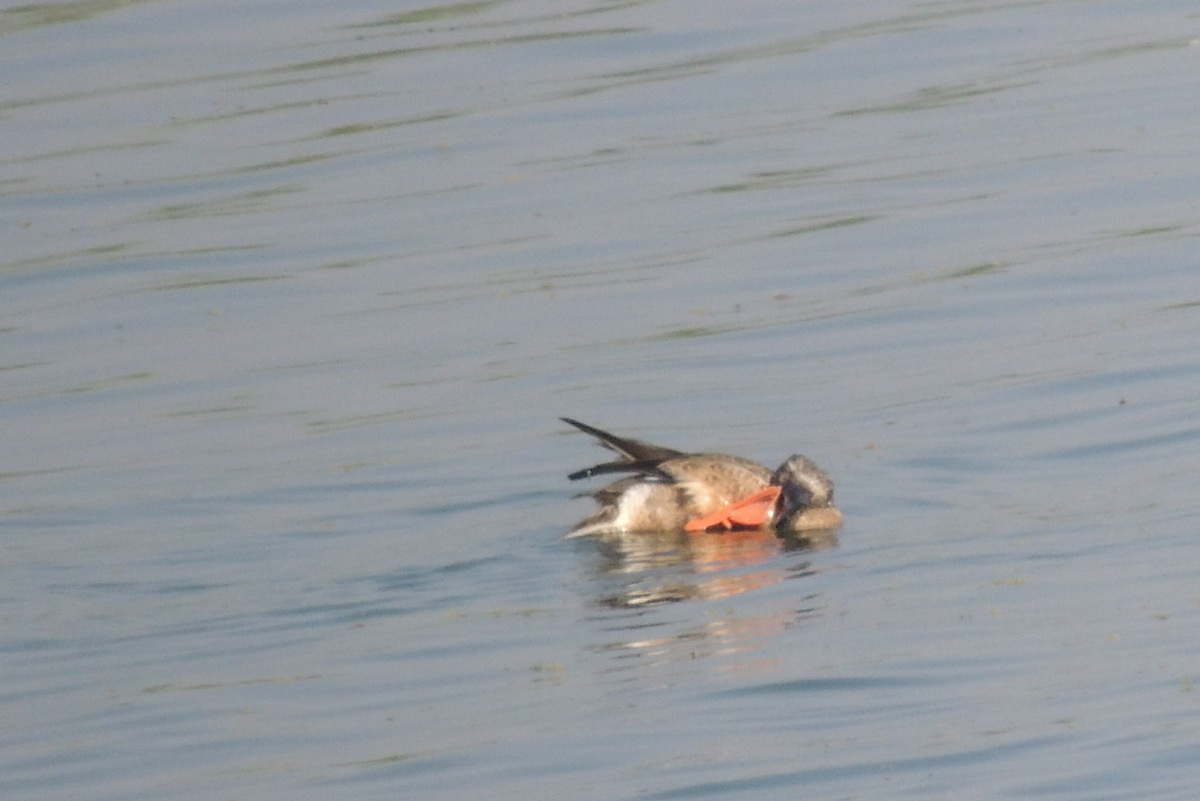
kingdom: Animalia
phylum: Chordata
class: Aves
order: Anseriformes
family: Anatidae
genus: Spatula
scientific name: Spatula clypeata
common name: Northern shoveler
